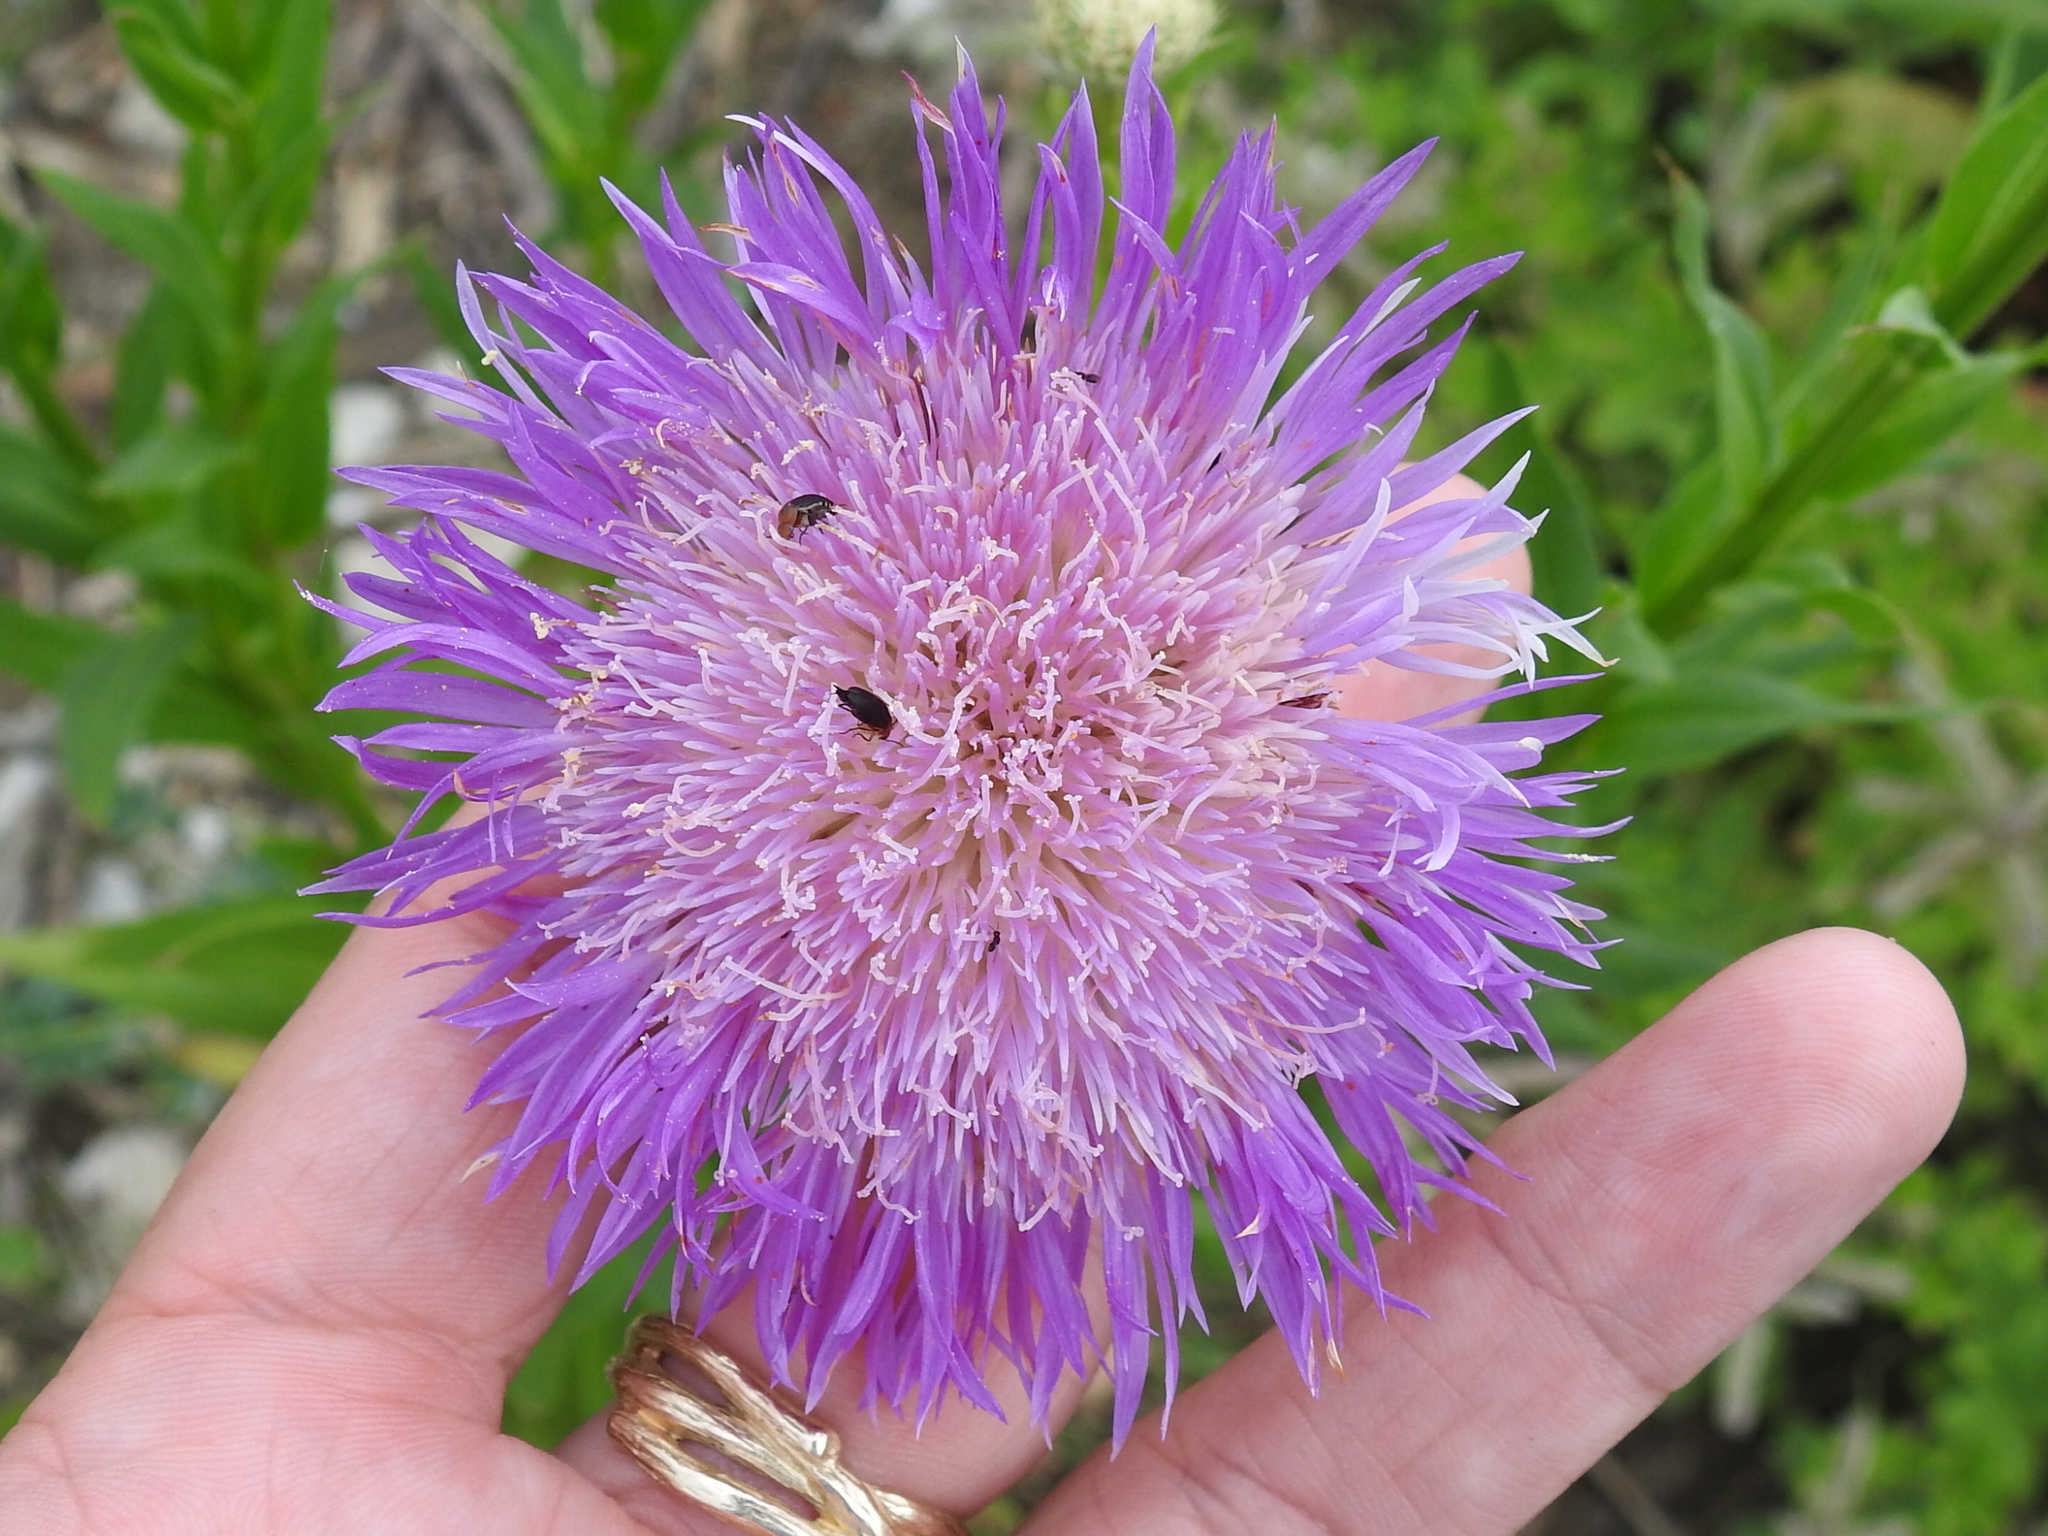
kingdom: Plantae
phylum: Tracheophyta
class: Magnoliopsida
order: Asterales
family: Asteraceae
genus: Plectocephalus
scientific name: Plectocephalus americanus
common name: American basket-flower
